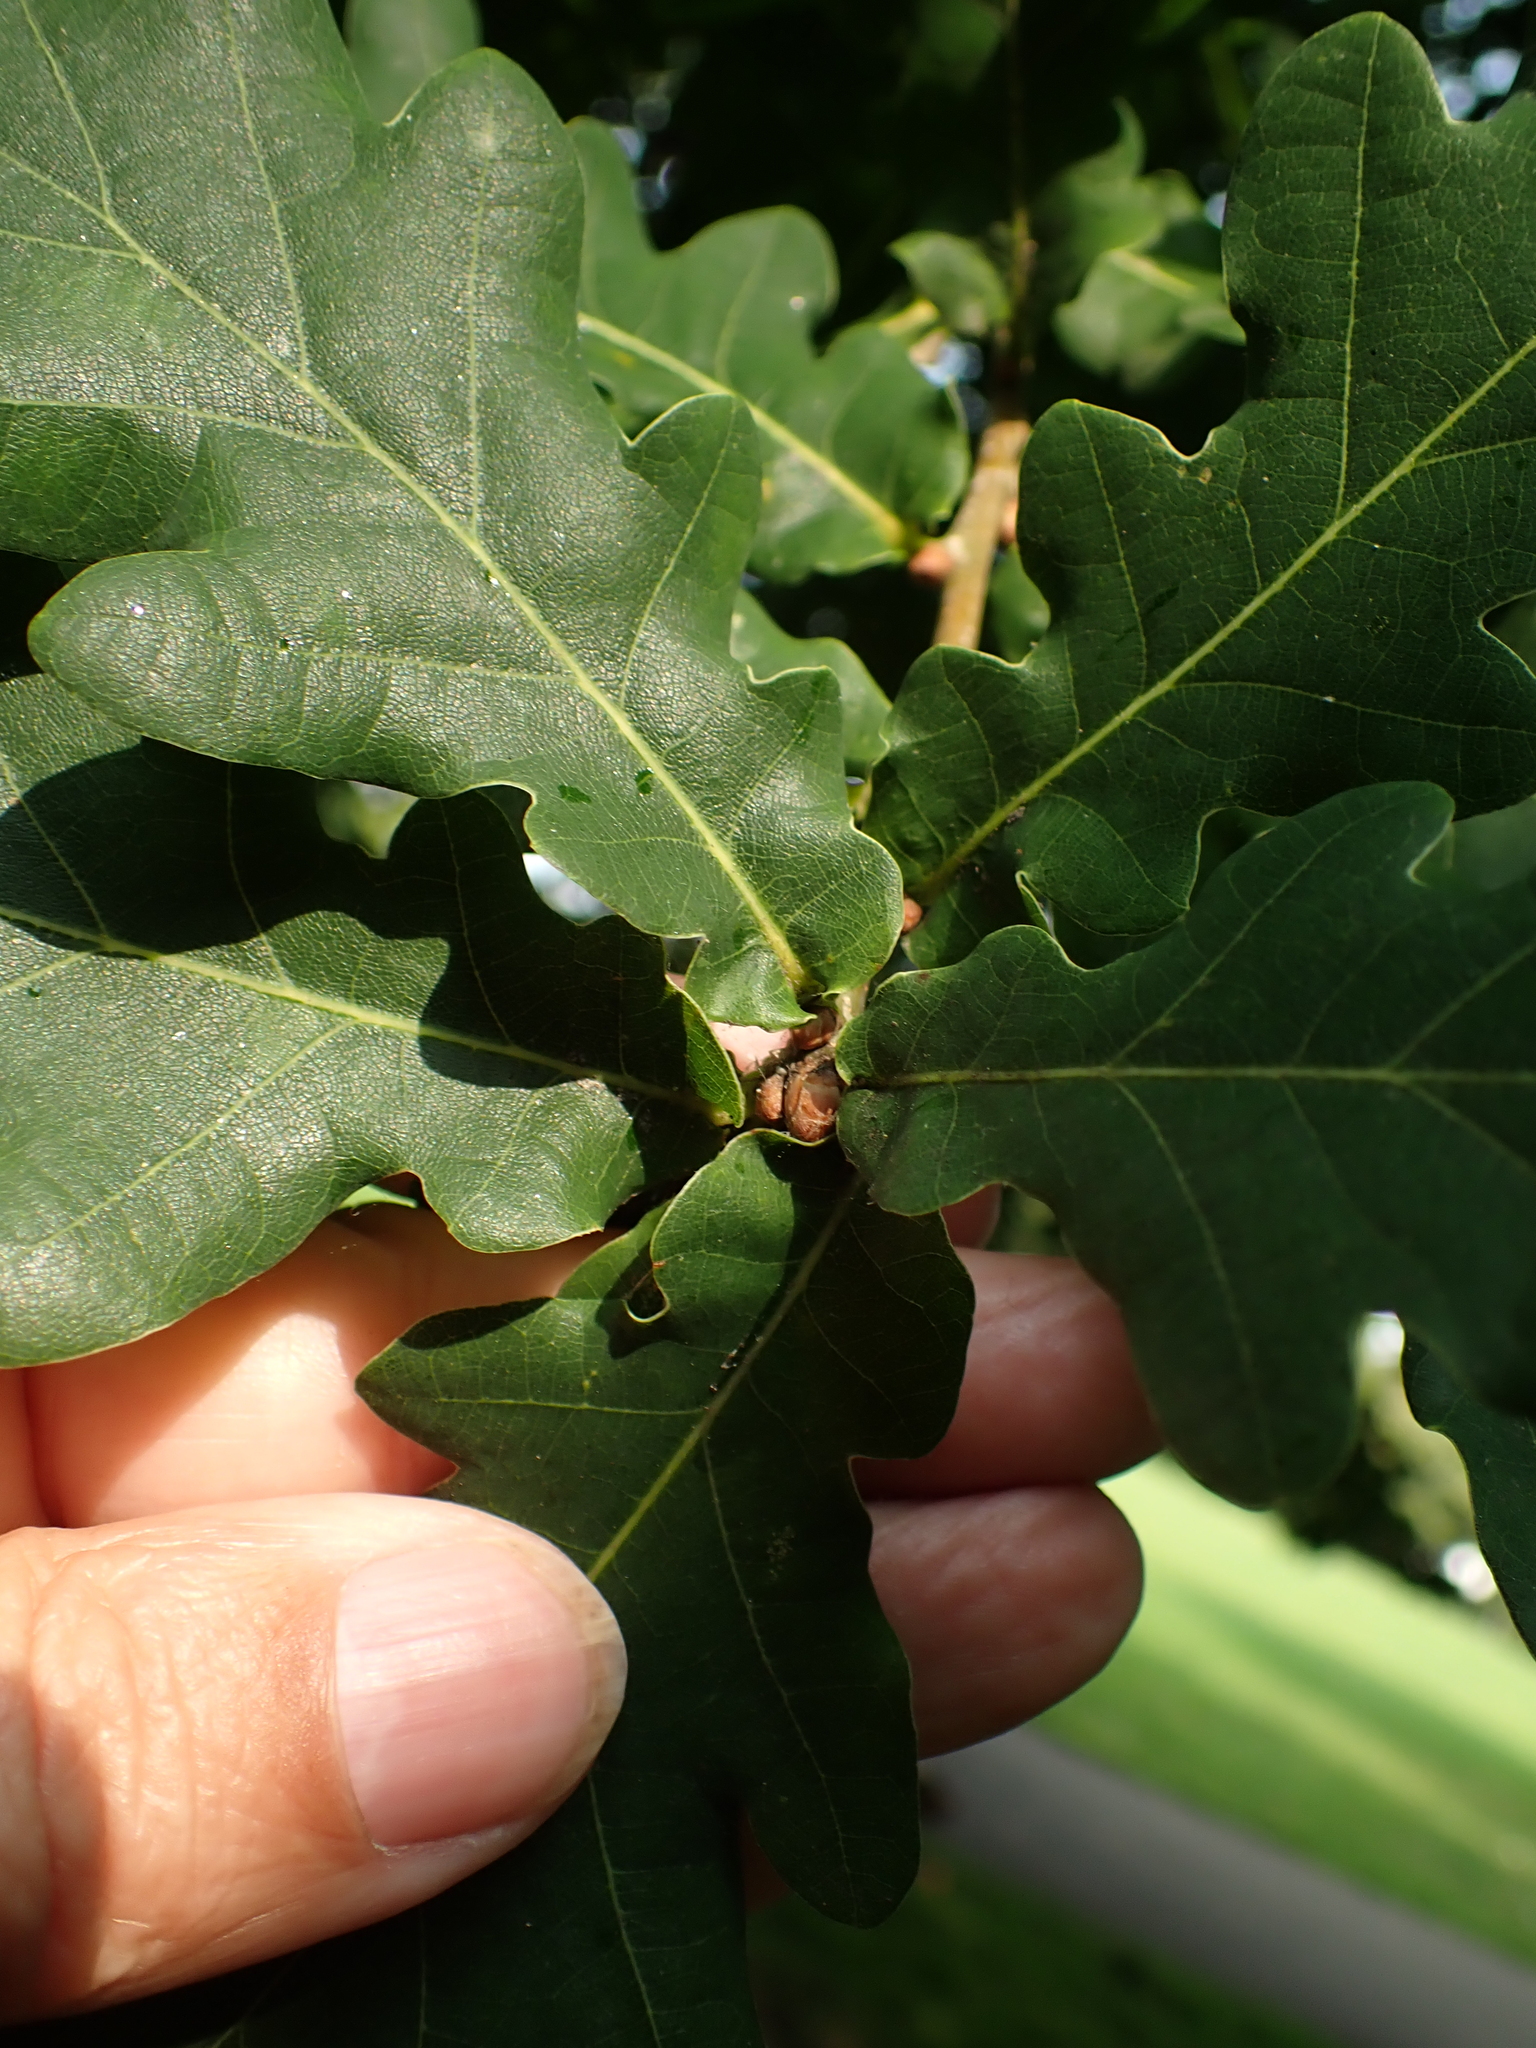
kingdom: Plantae
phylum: Tracheophyta
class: Magnoliopsida
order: Fagales
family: Fagaceae
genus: Quercus
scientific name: Quercus robur
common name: Pedunculate oak
